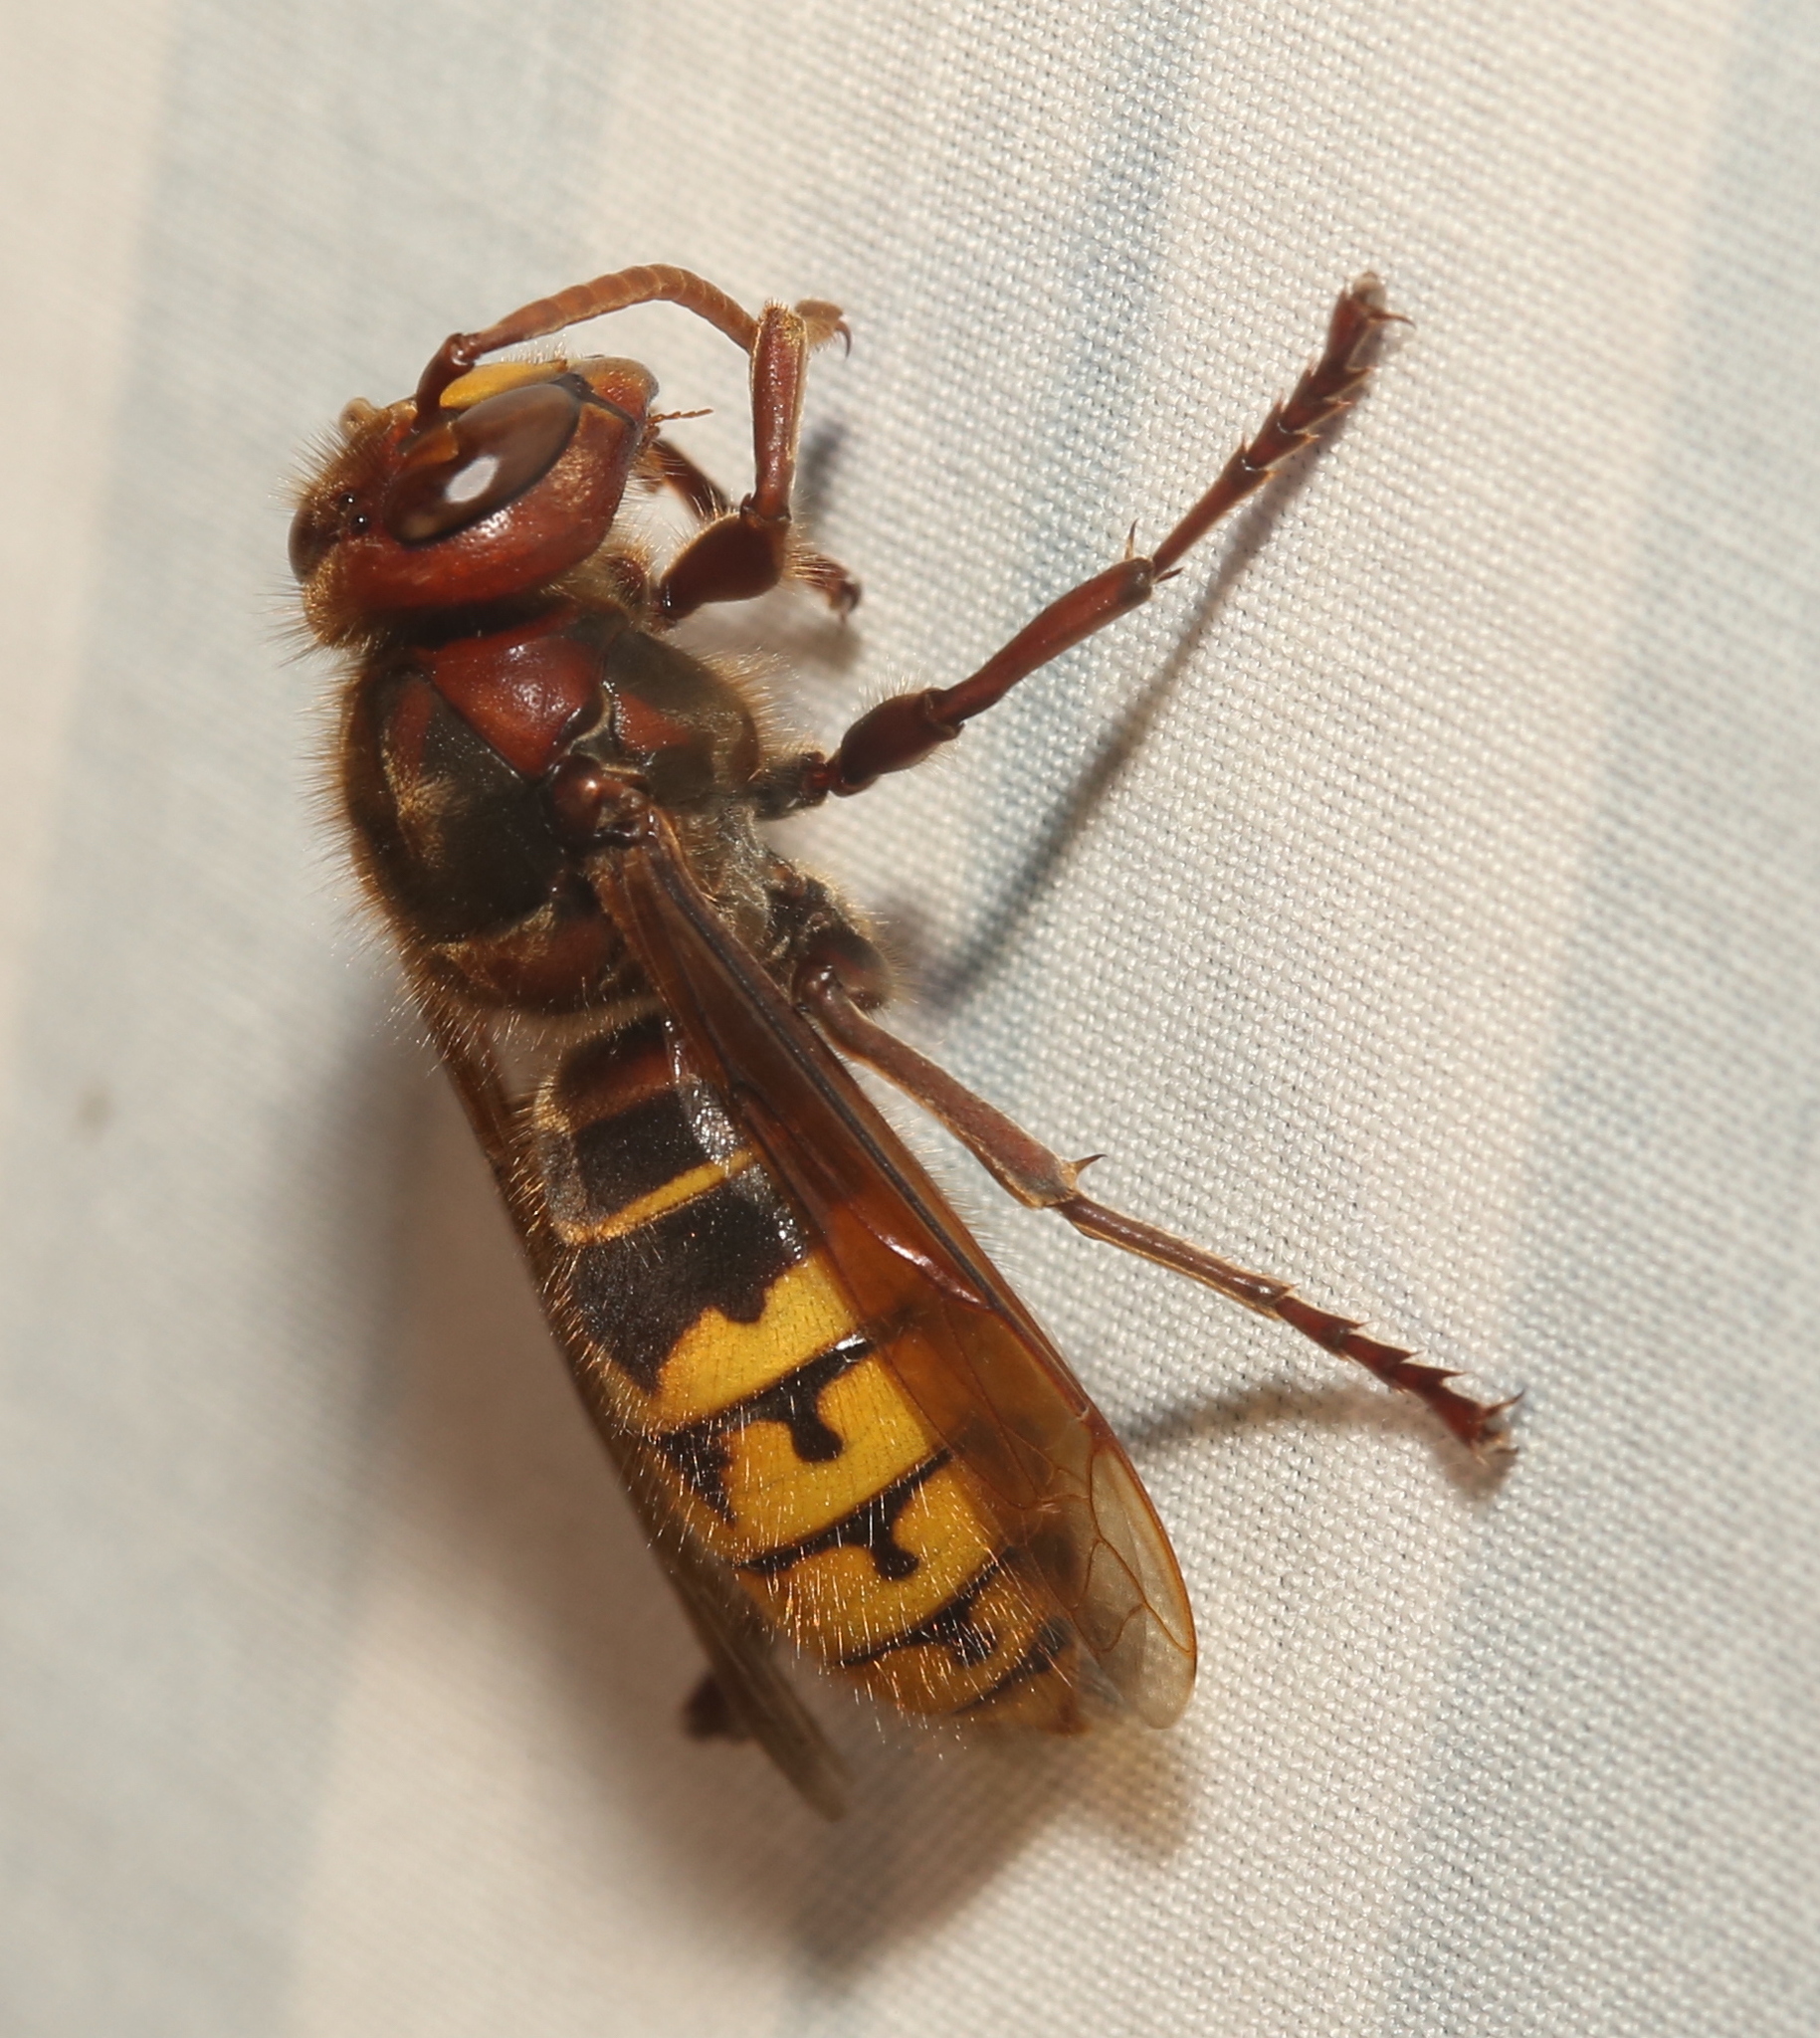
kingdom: Animalia
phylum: Arthropoda
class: Insecta
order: Hymenoptera
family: Vespidae
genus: Vespa
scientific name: Vespa crabro
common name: Hornet
